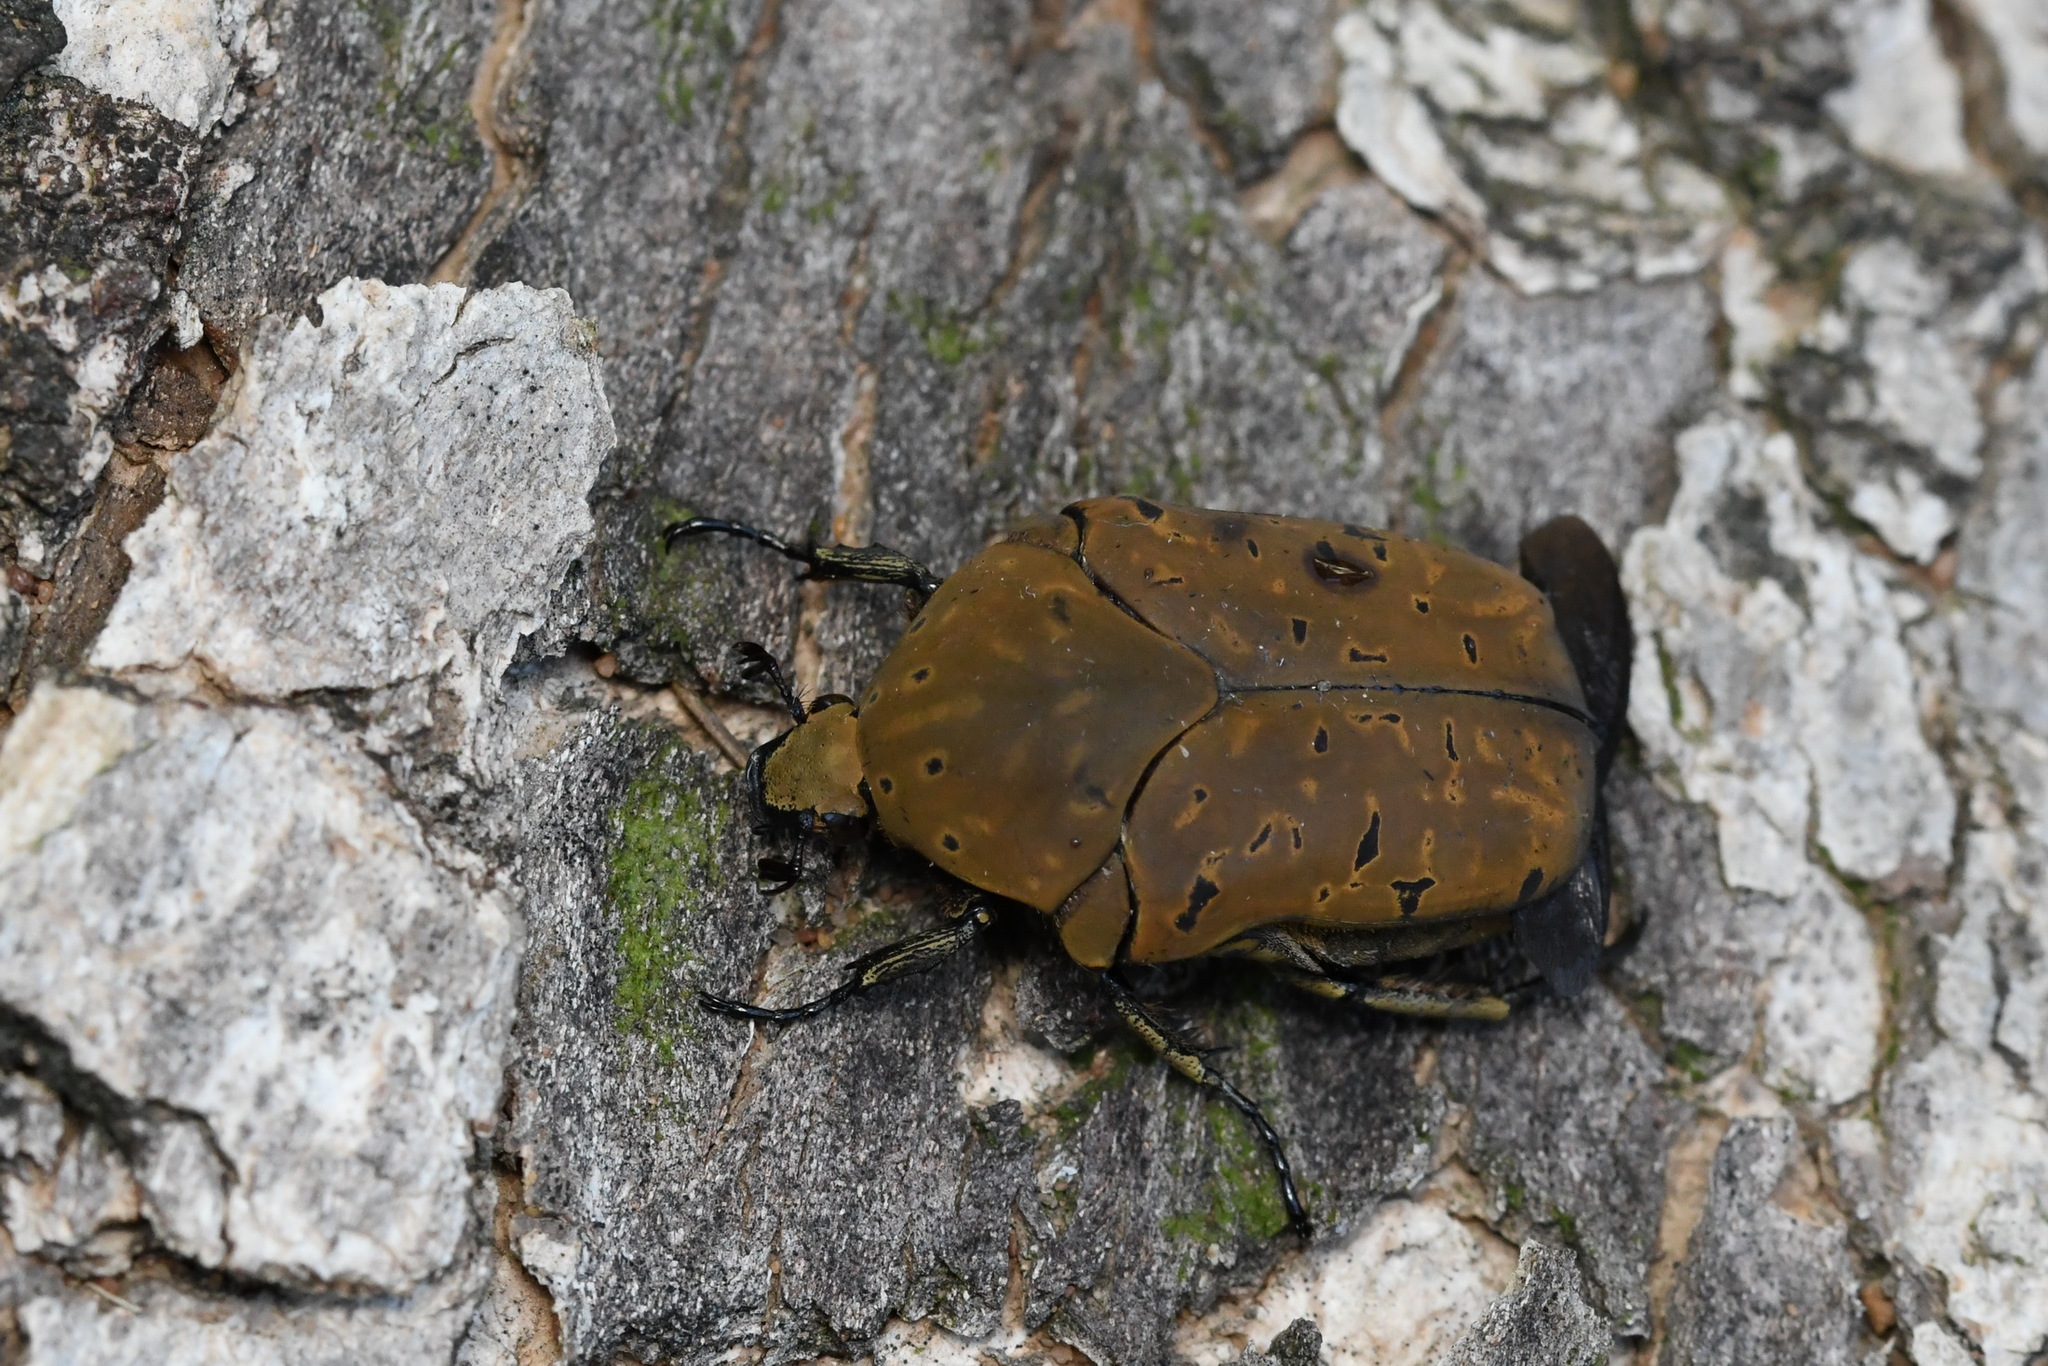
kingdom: Animalia
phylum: Arthropoda
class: Insecta
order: Coleoptera
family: Scarabaeidae
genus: Gymnetis
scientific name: Gymnetis pantherina
